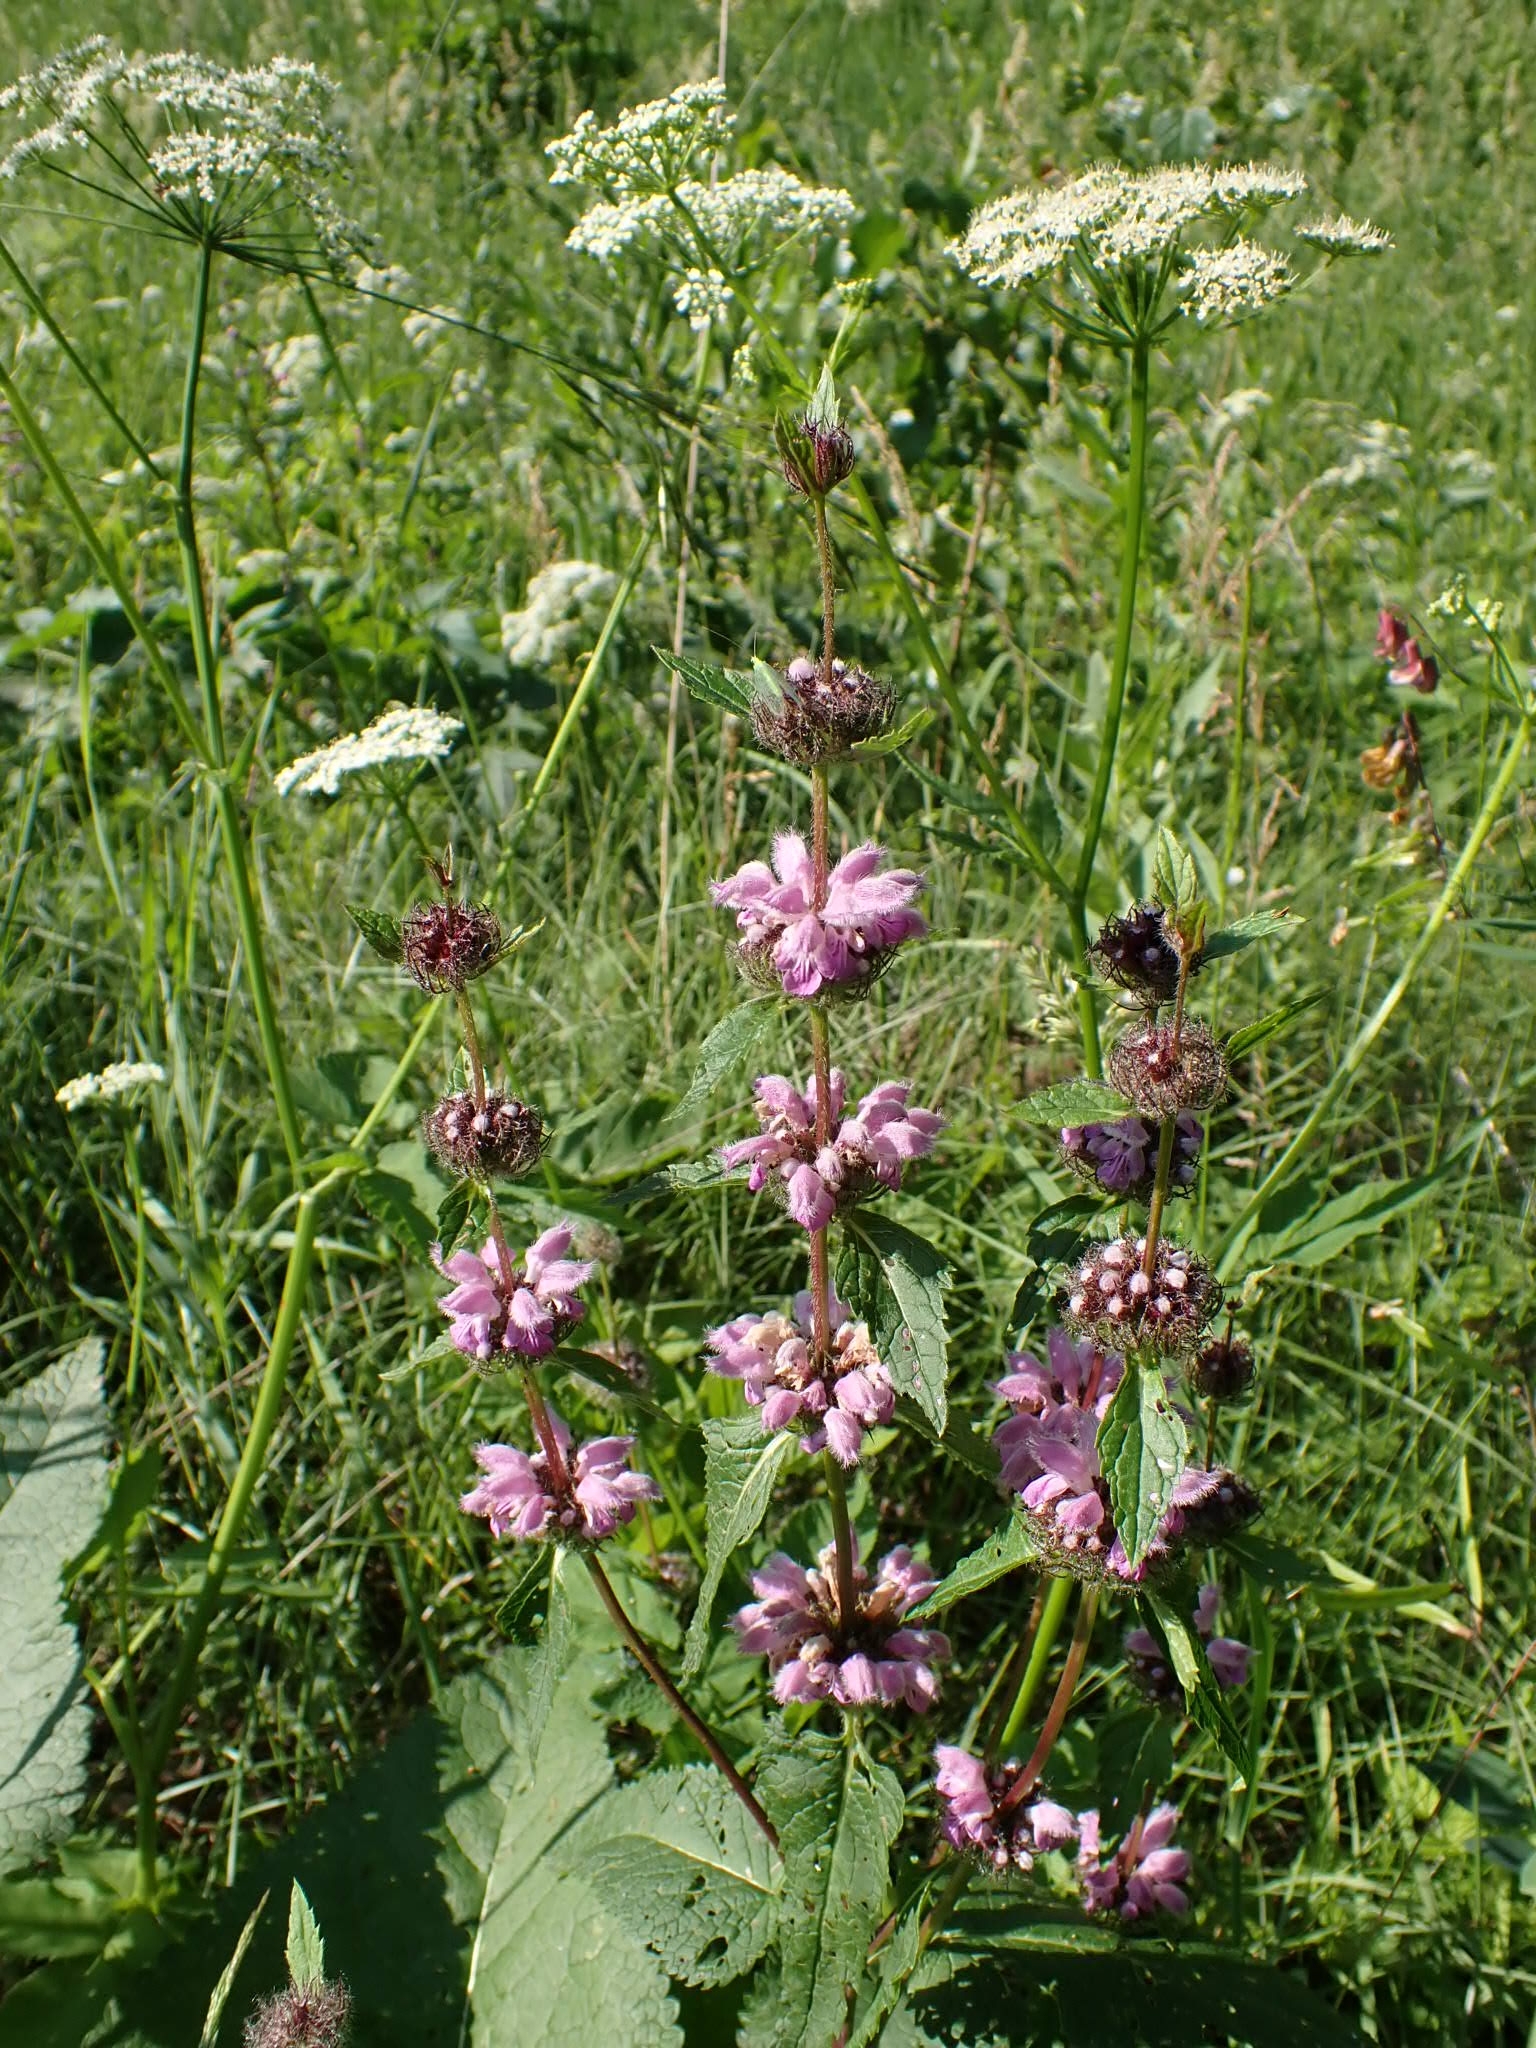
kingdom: Plantae
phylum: Tracheophyta
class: Magnoliopsida
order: Lamiales
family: Lamiaceae
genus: Phlomoides
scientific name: Phlomoides tuberosa
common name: Tuberous jerusalem sage
